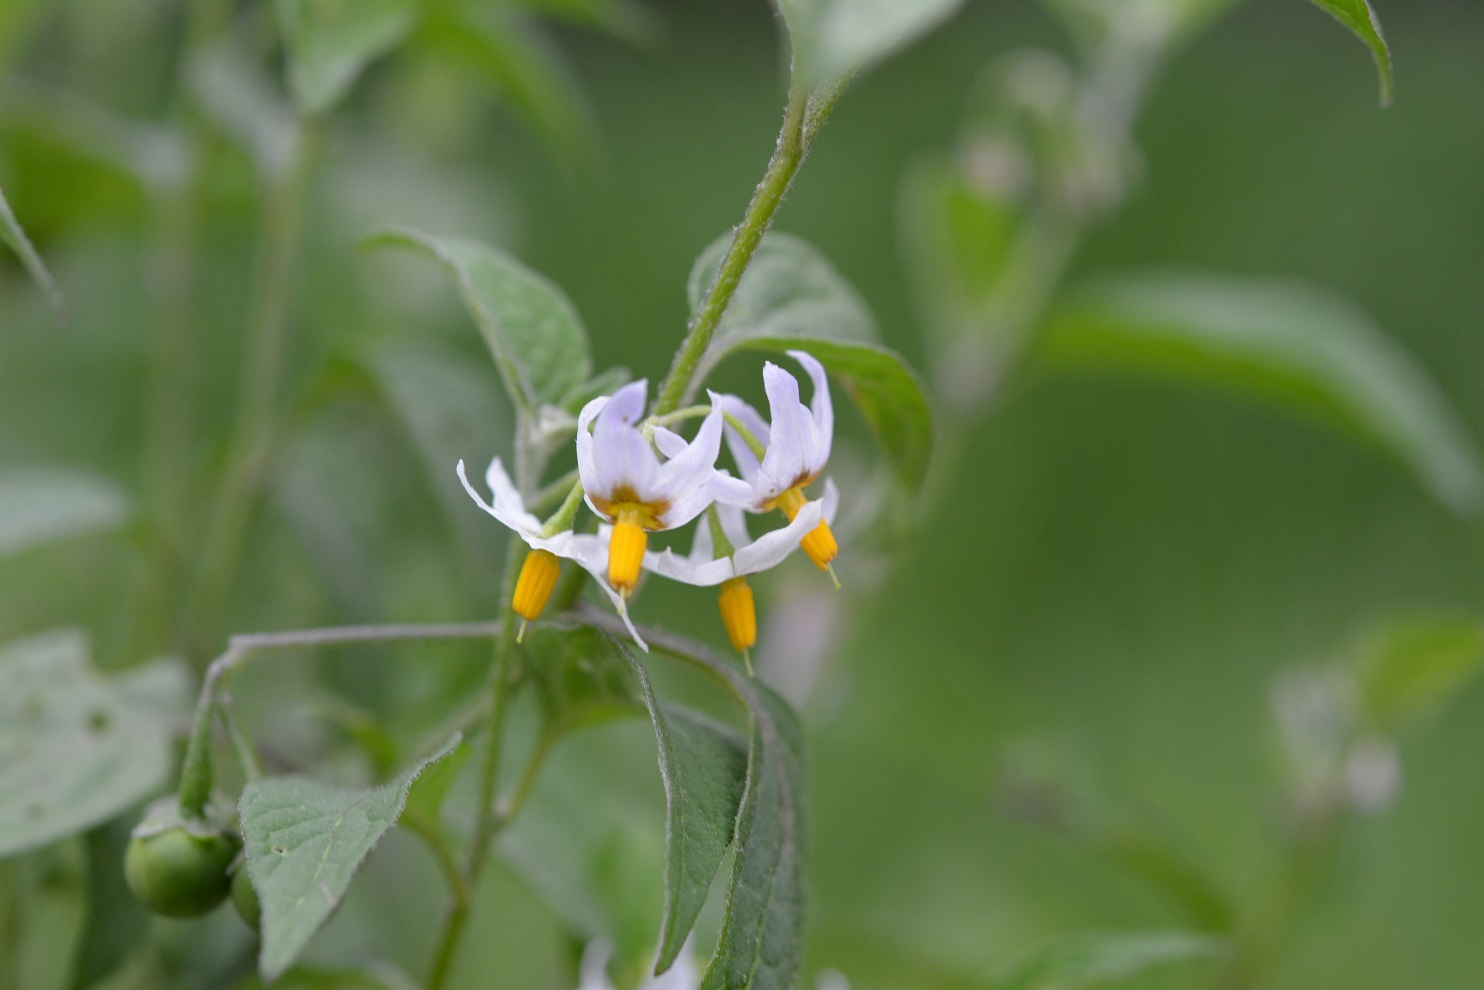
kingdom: Plantae
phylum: Tracheophyta
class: Magnoliopsida
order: Solanales
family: Solanaceae
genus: Solanum
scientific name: Solanum nigrescens
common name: Divine nightshade
